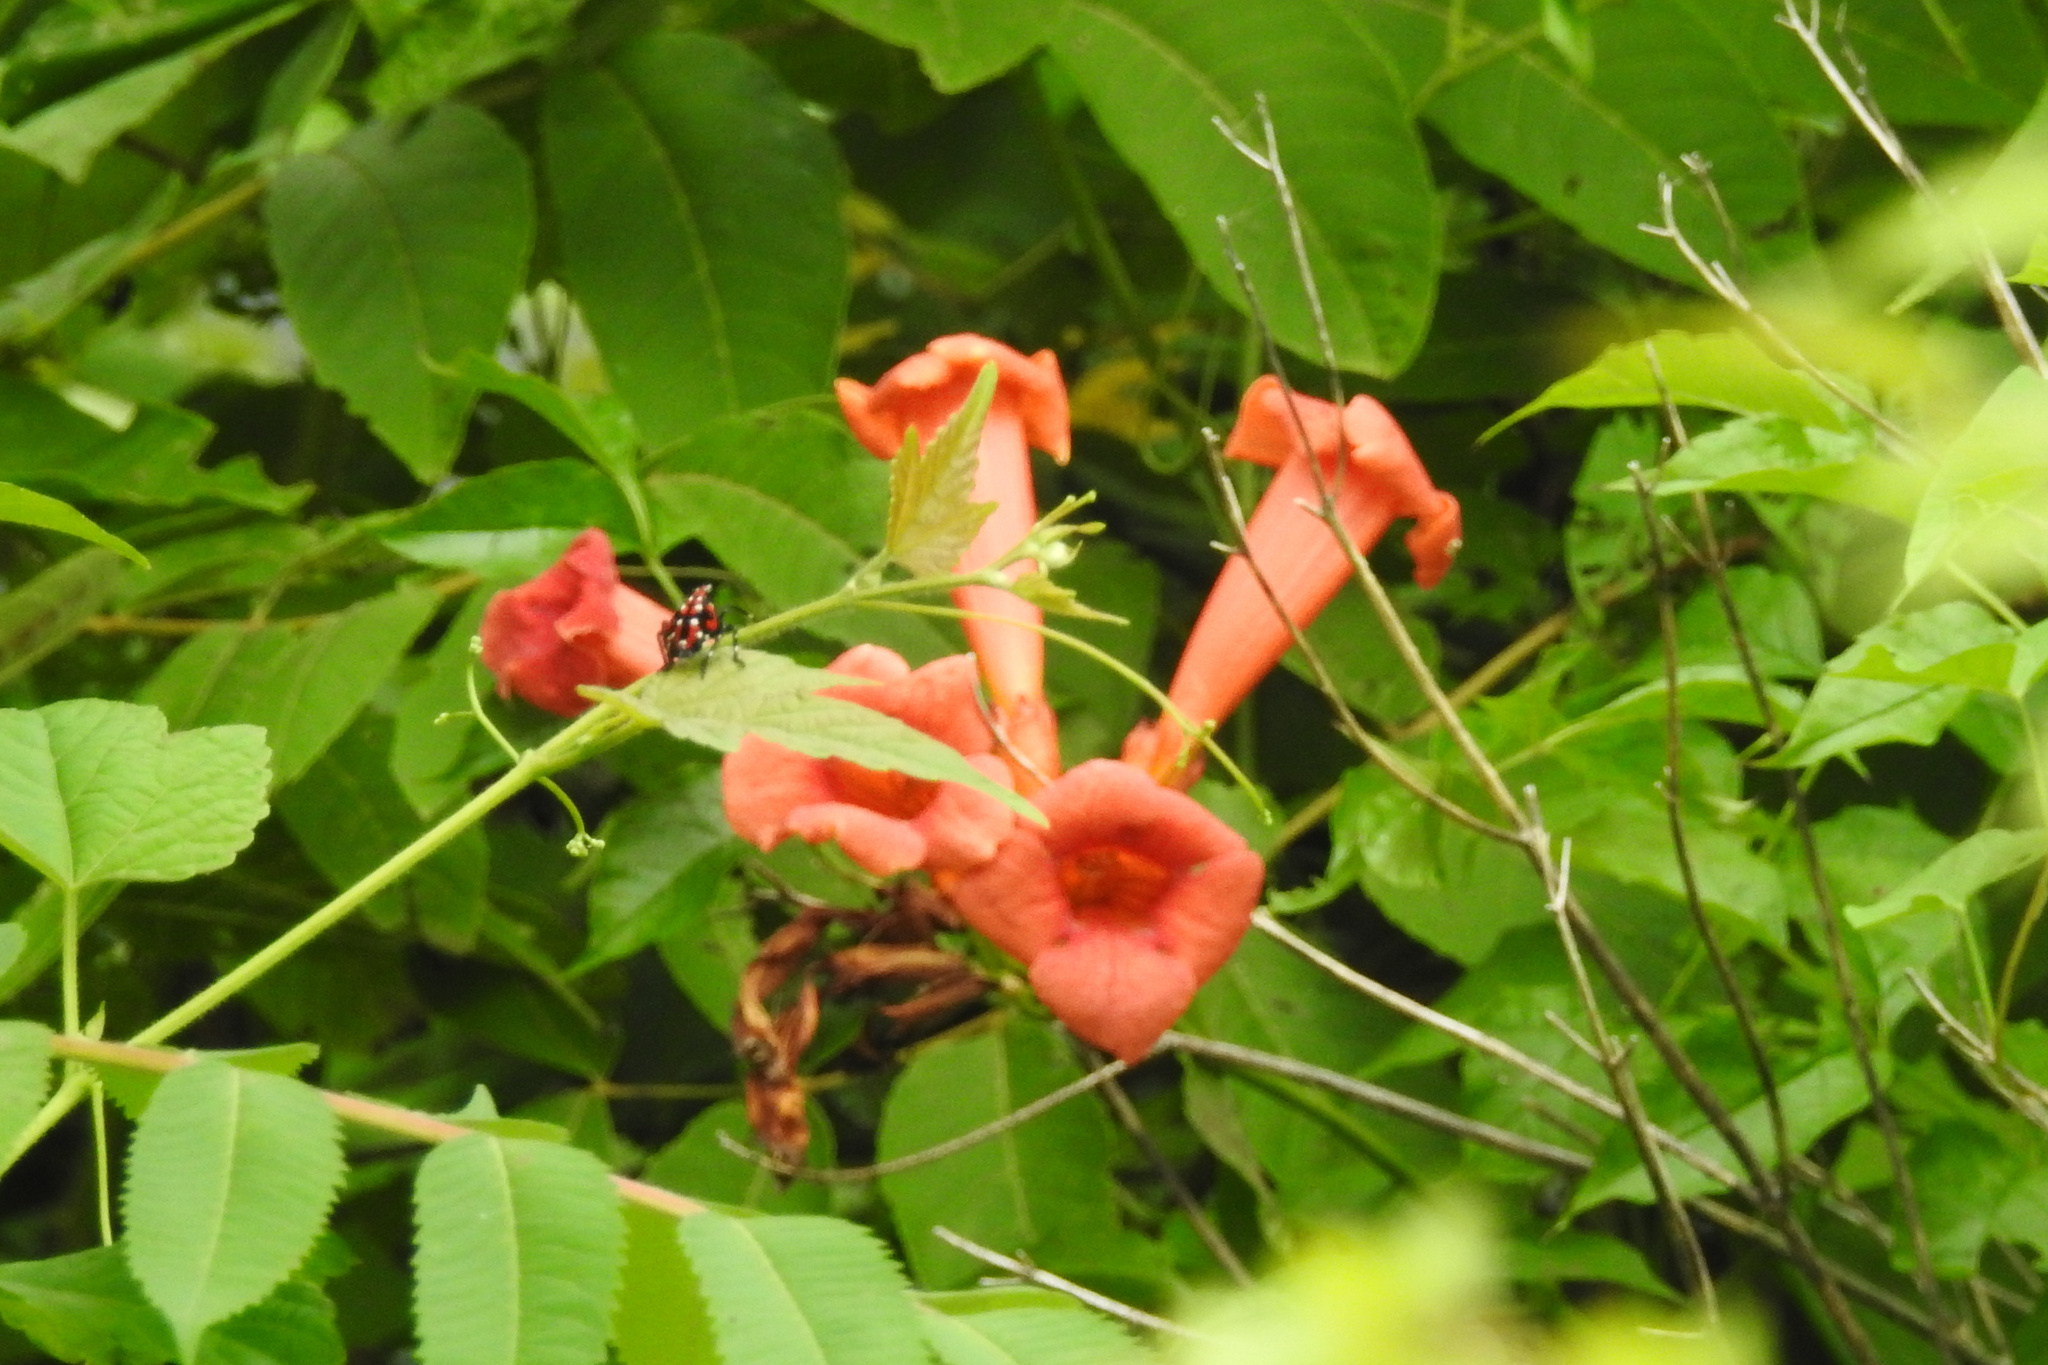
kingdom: Plantae
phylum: Tracheophyta
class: Magnoliopsida
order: Lamiales
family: Bignoniaceae
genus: Campsis
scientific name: Campsis radicans
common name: Trumpet-creeper
